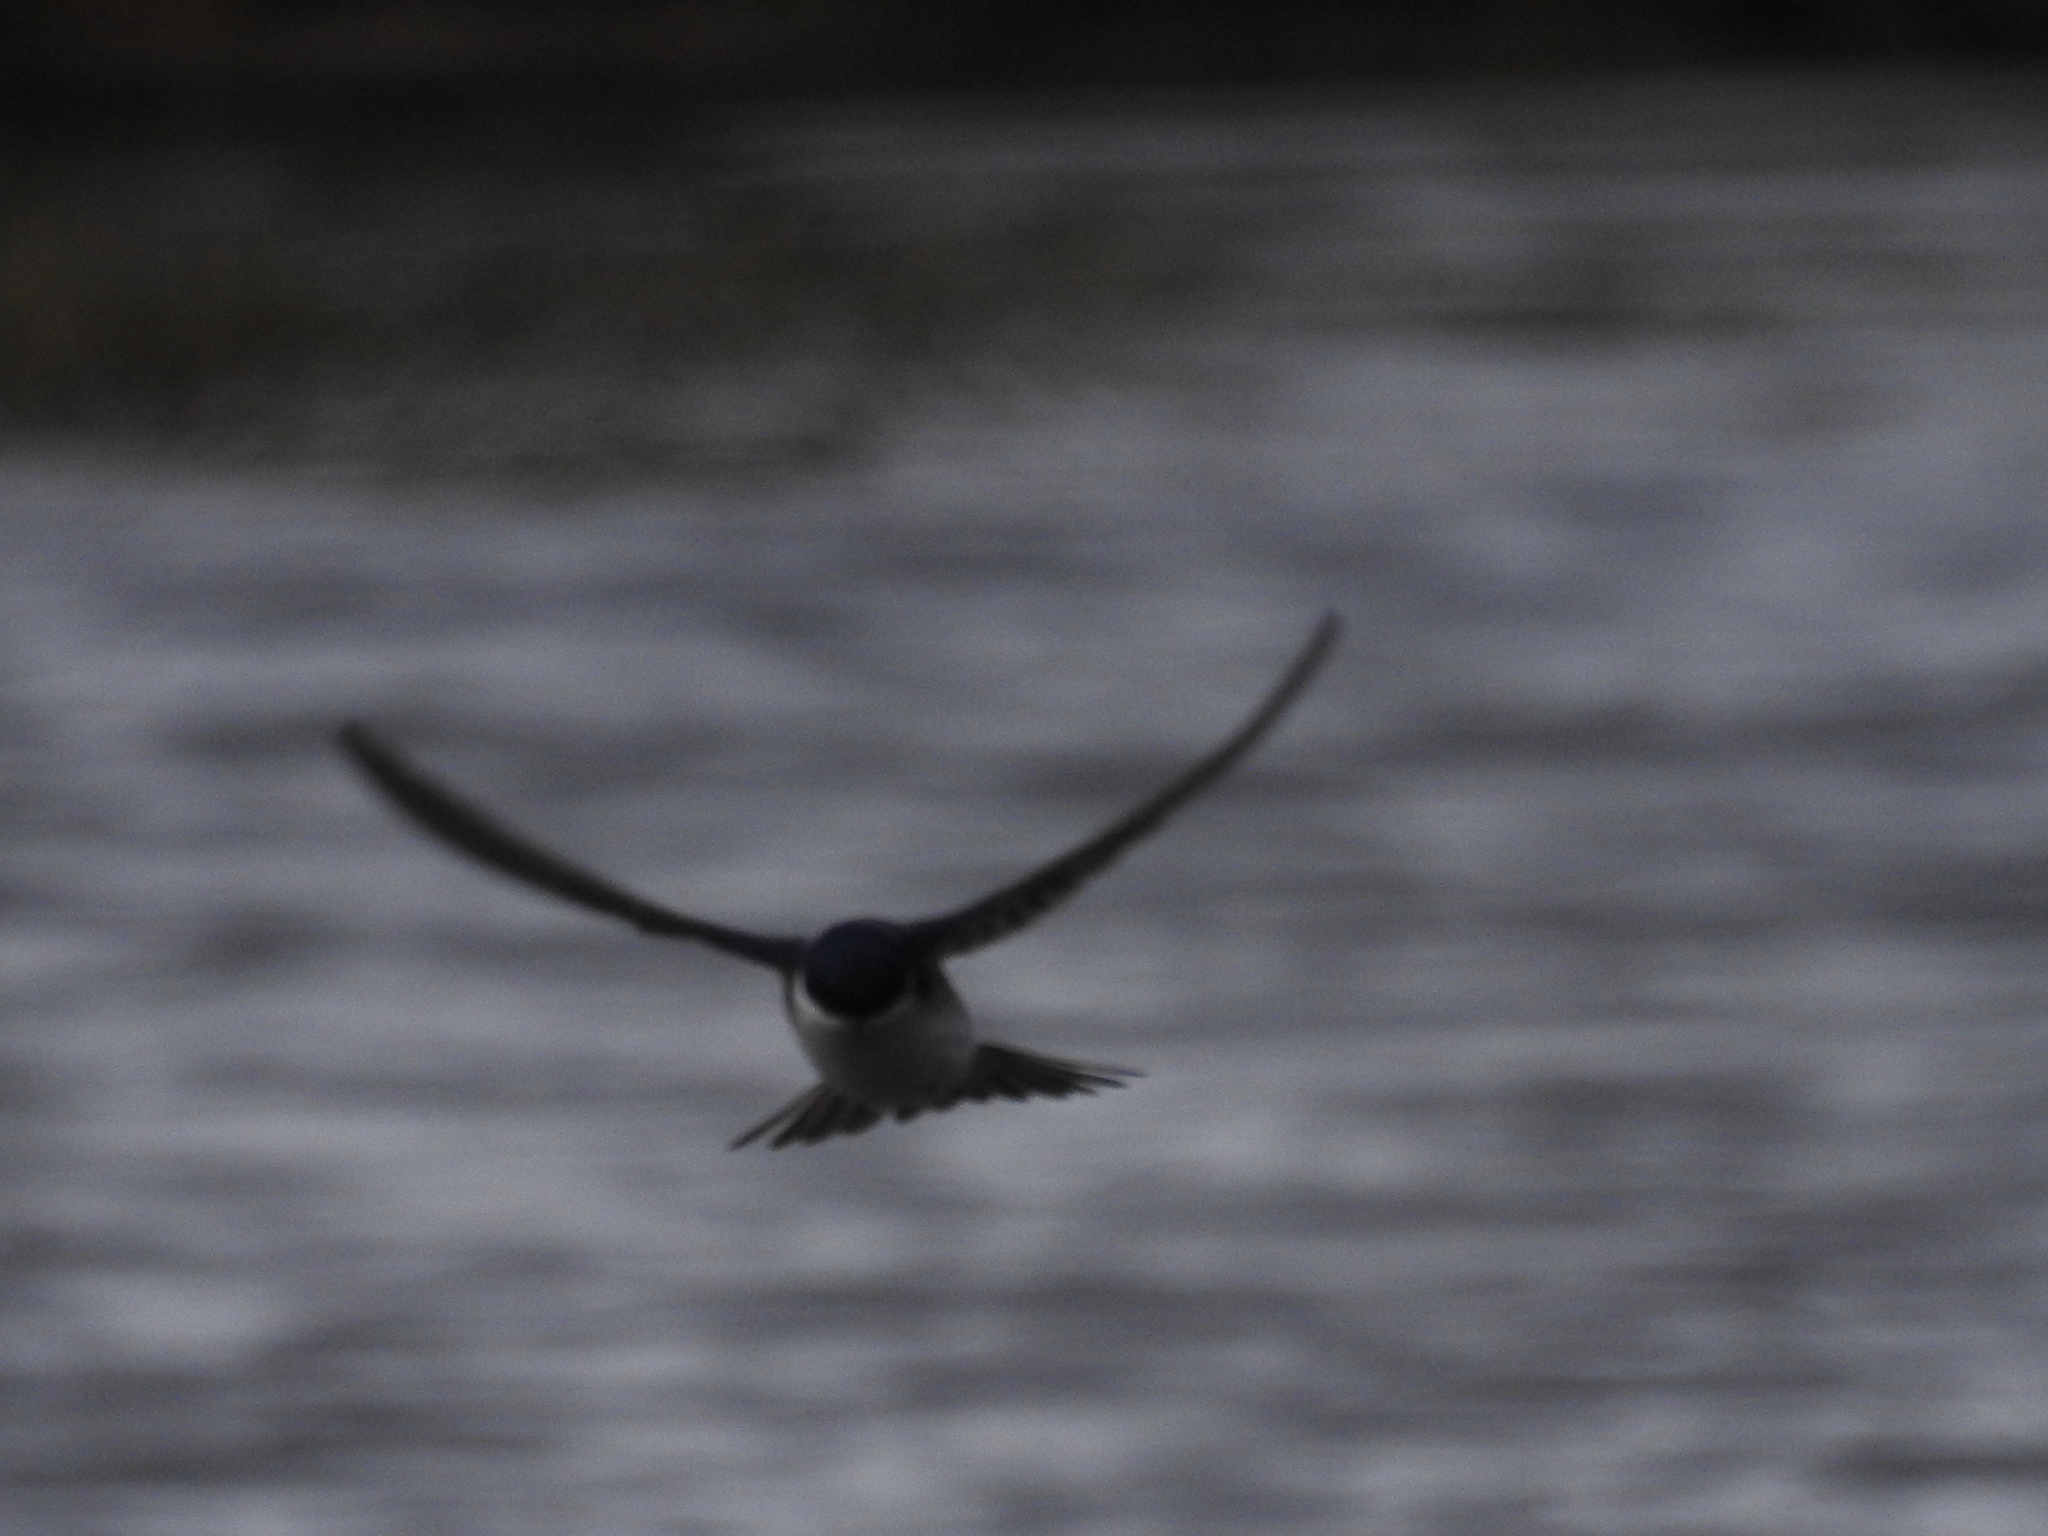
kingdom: Animalia
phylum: Chordata
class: Aves
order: Passeriformes
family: Hirundinidae
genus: Tachycineta
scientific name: Tachycineta leucopyga
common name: Chilean swallow
